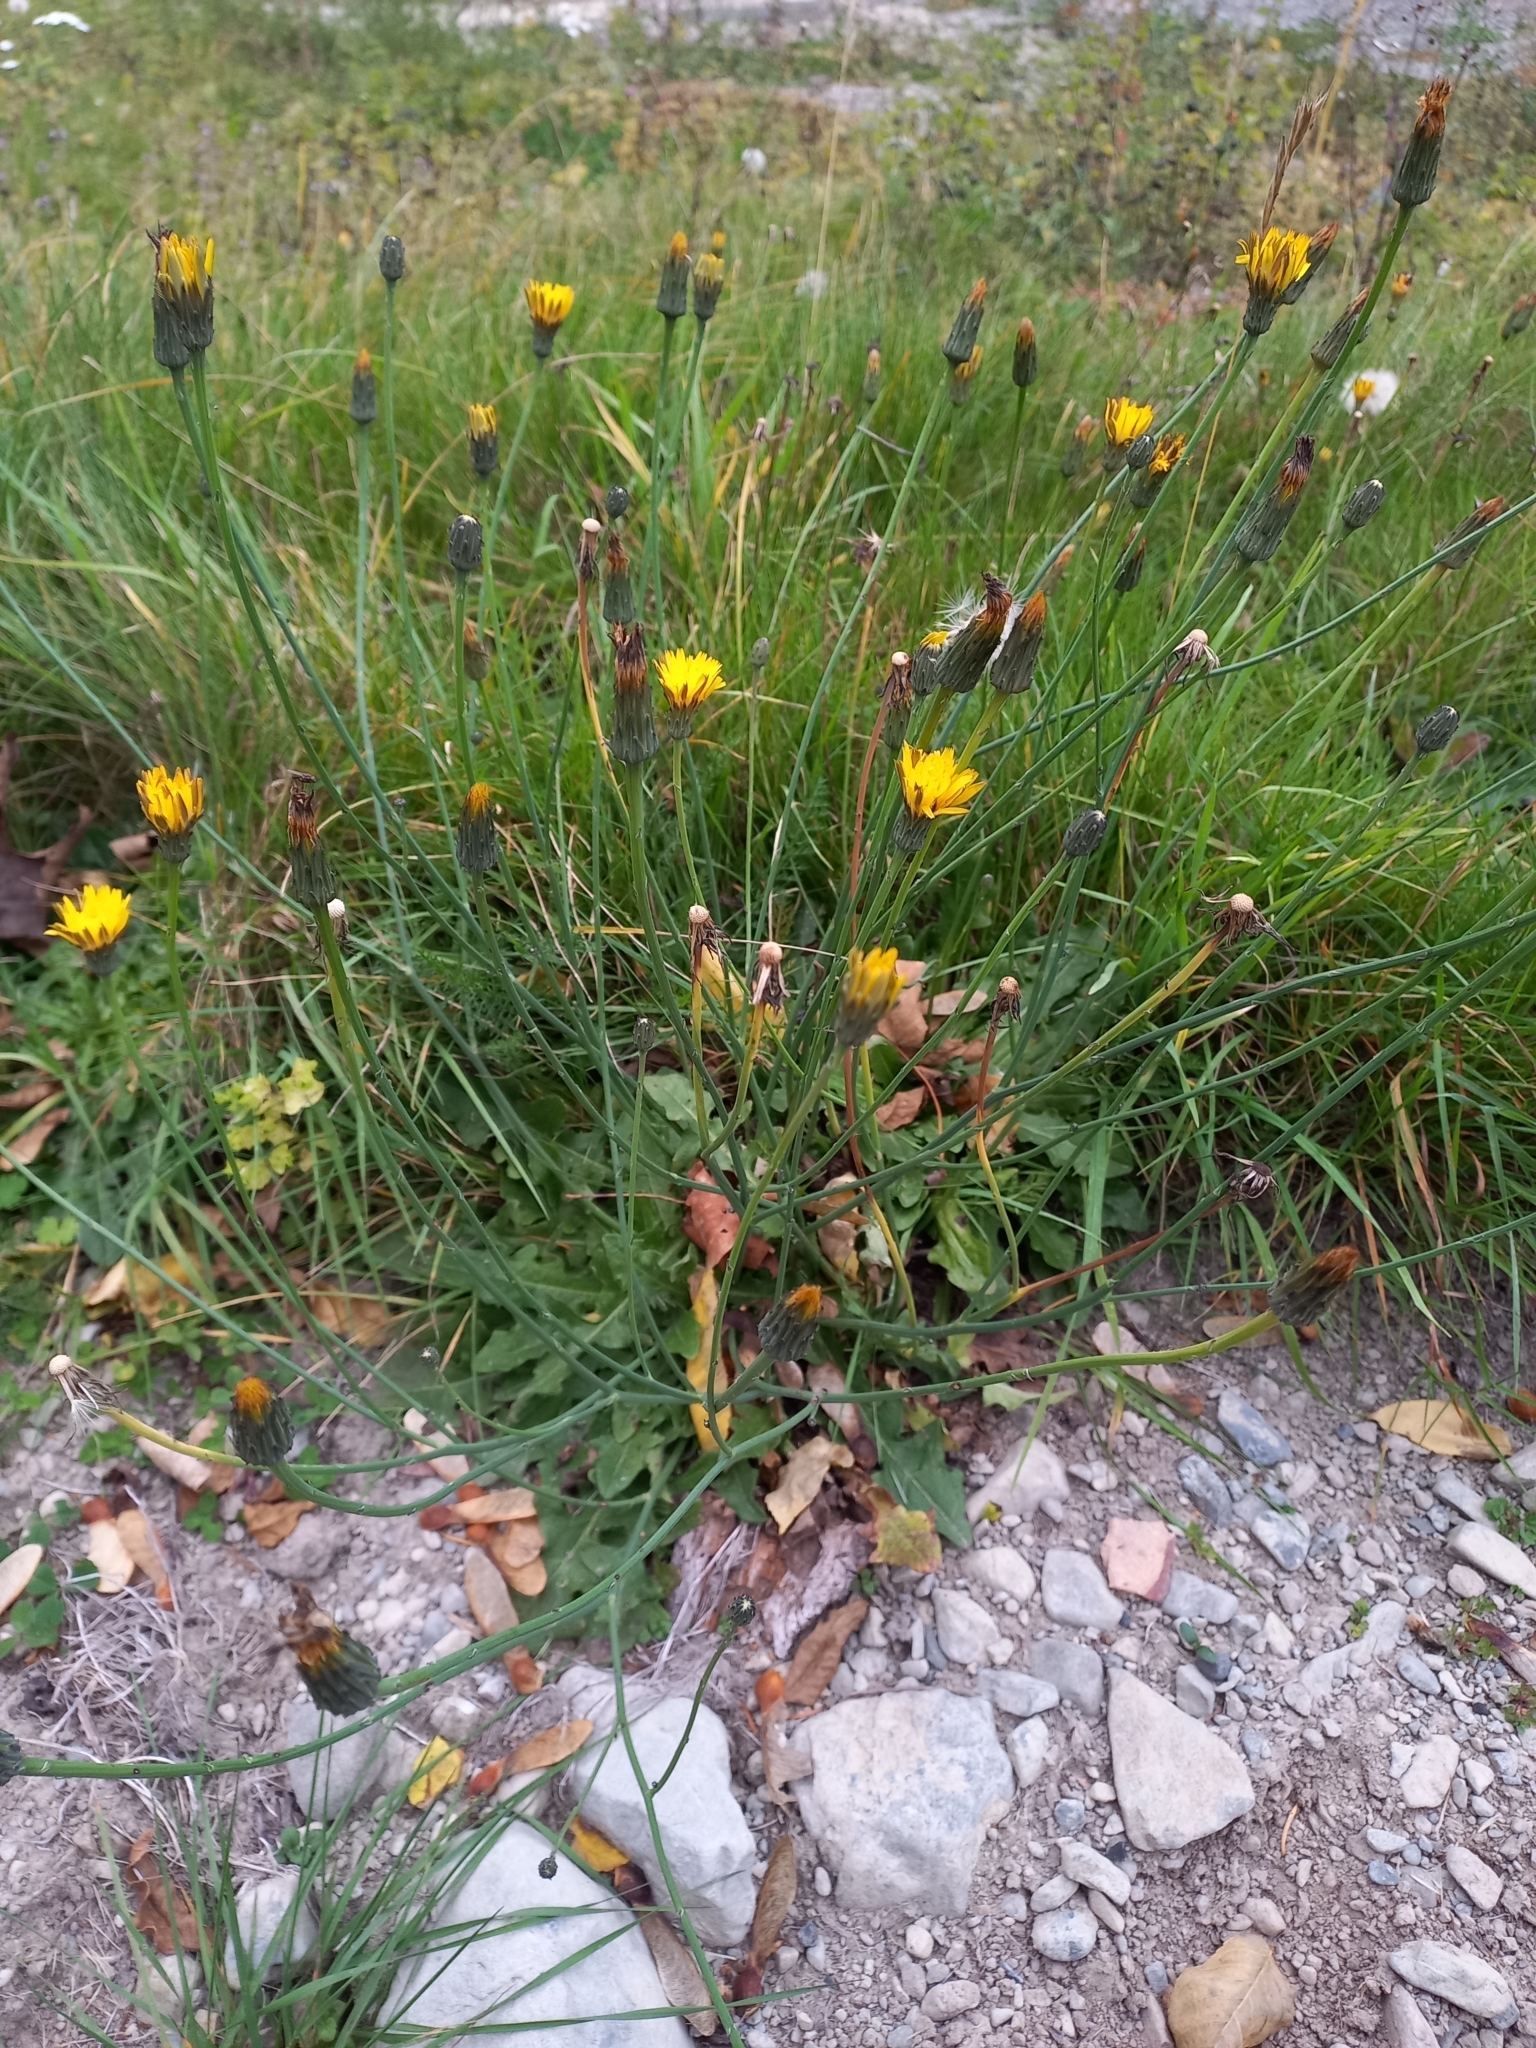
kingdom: Plantae
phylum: Tracheophyta
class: Magnoliopsida
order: Asterales
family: Asteraceae
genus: Hypochaeris
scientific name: Hypochaeris radicata
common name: Flatweed
